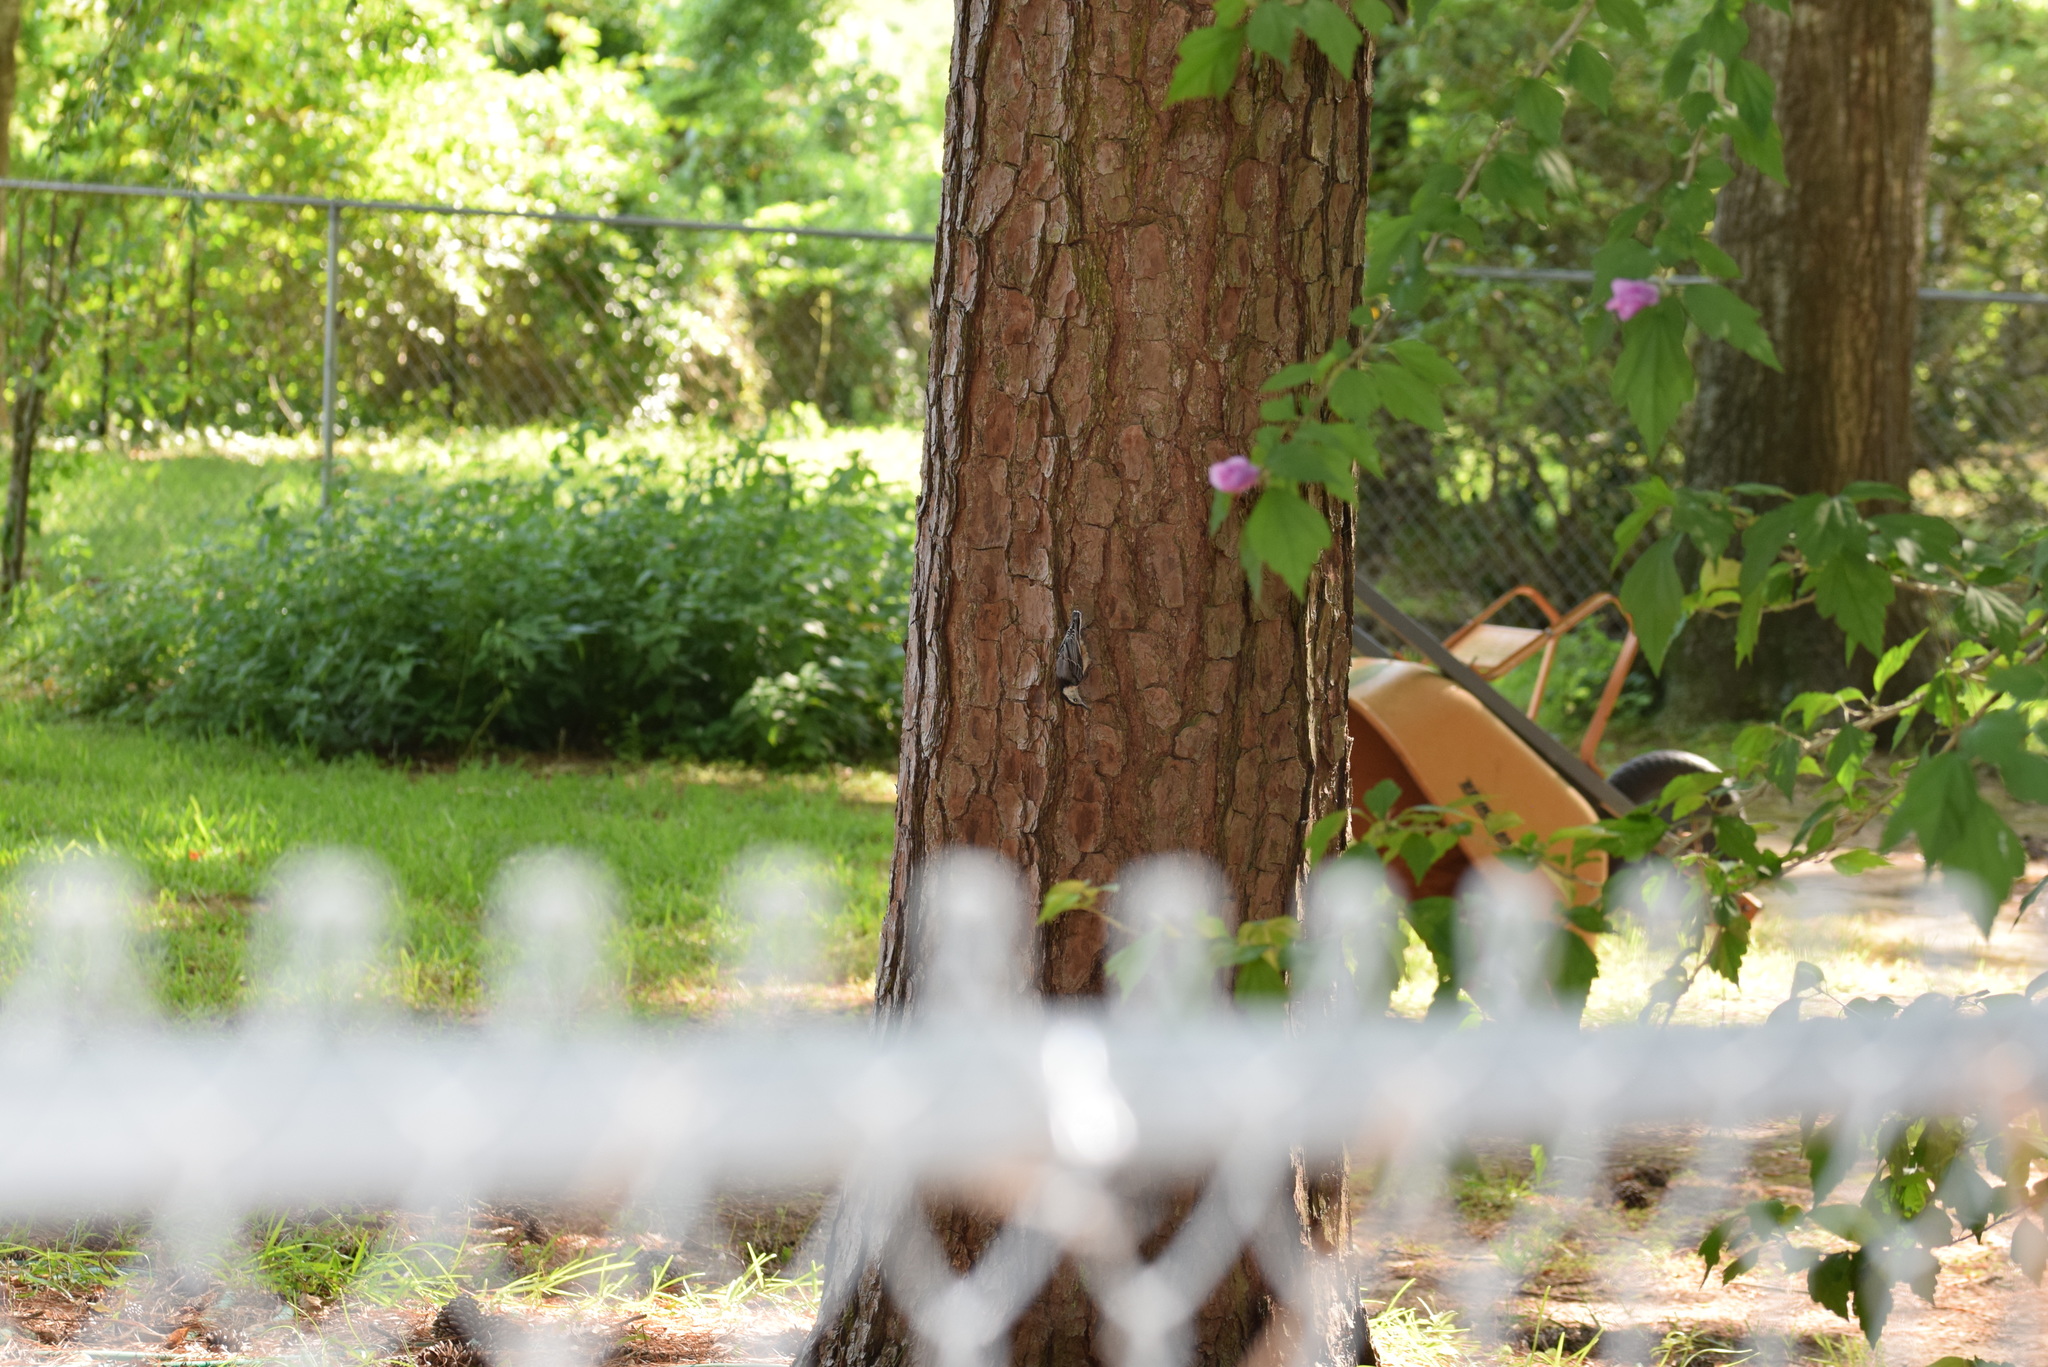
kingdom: Animalia
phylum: Chordata
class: Aves
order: Passeriformes
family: Sittidae
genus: Sitta
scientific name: Sitta carolinensis
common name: White-breasted nuthatch
